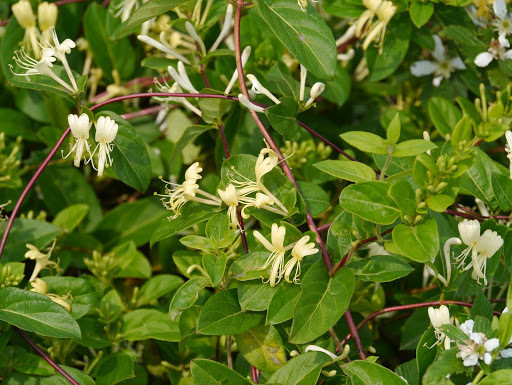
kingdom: Plantae
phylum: Tracheophyta
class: Magnoliopsida
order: Dipsacales
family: Caprifoliaceae
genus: Lonicera
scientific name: Lonicera japonica
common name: Japanese honeysuckle
